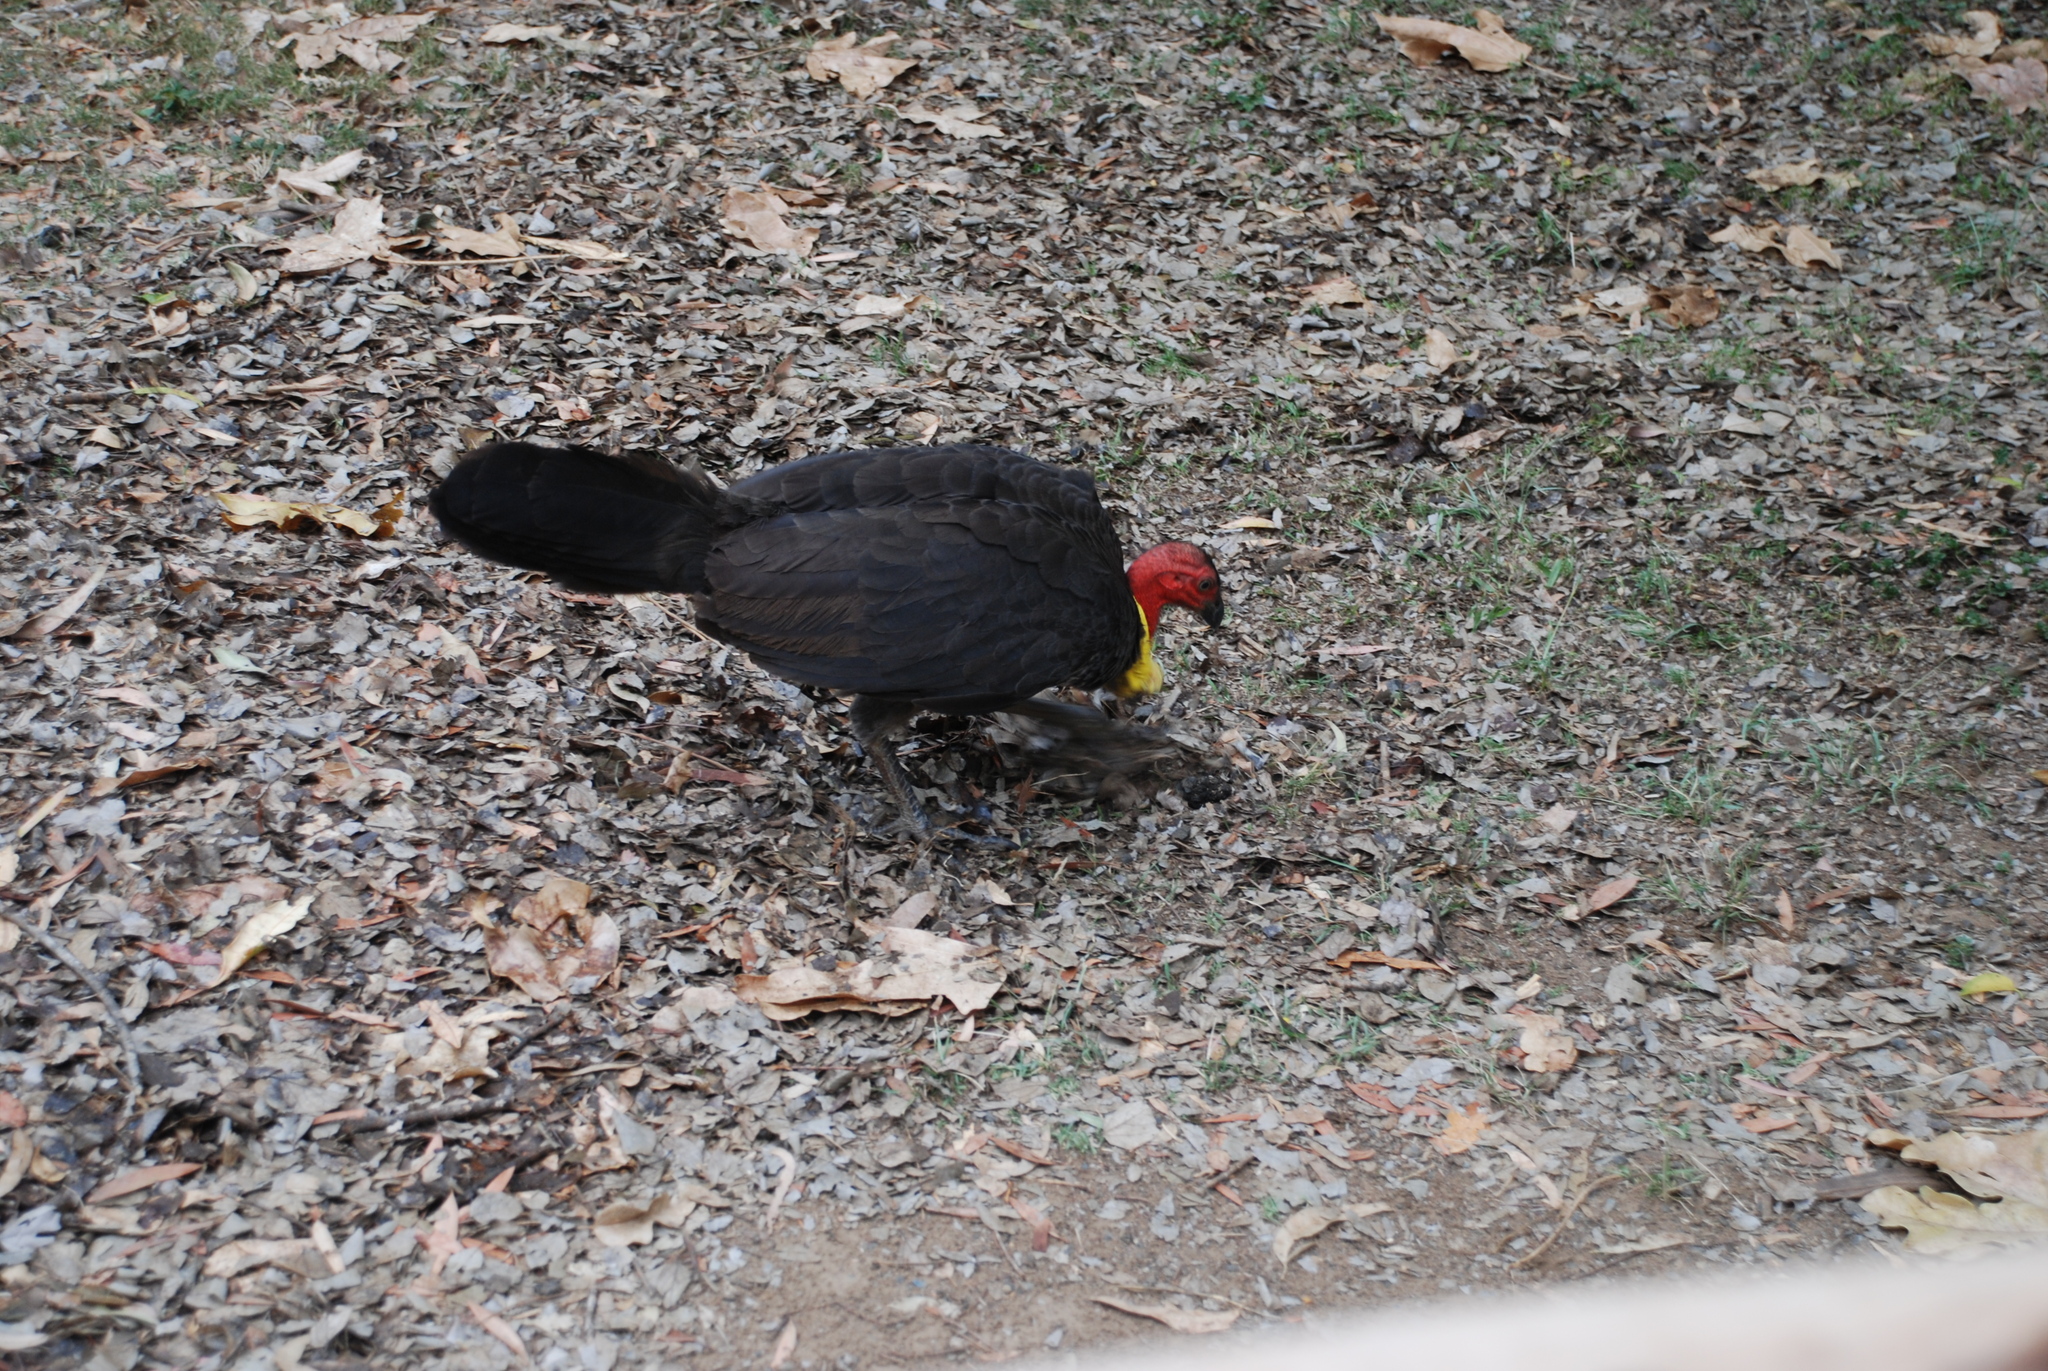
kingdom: Animalia
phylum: Chordata
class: Aves
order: Galliformes
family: Megapodiidae
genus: Alectura
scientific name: Alectura lathami
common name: Australian brushturkey
